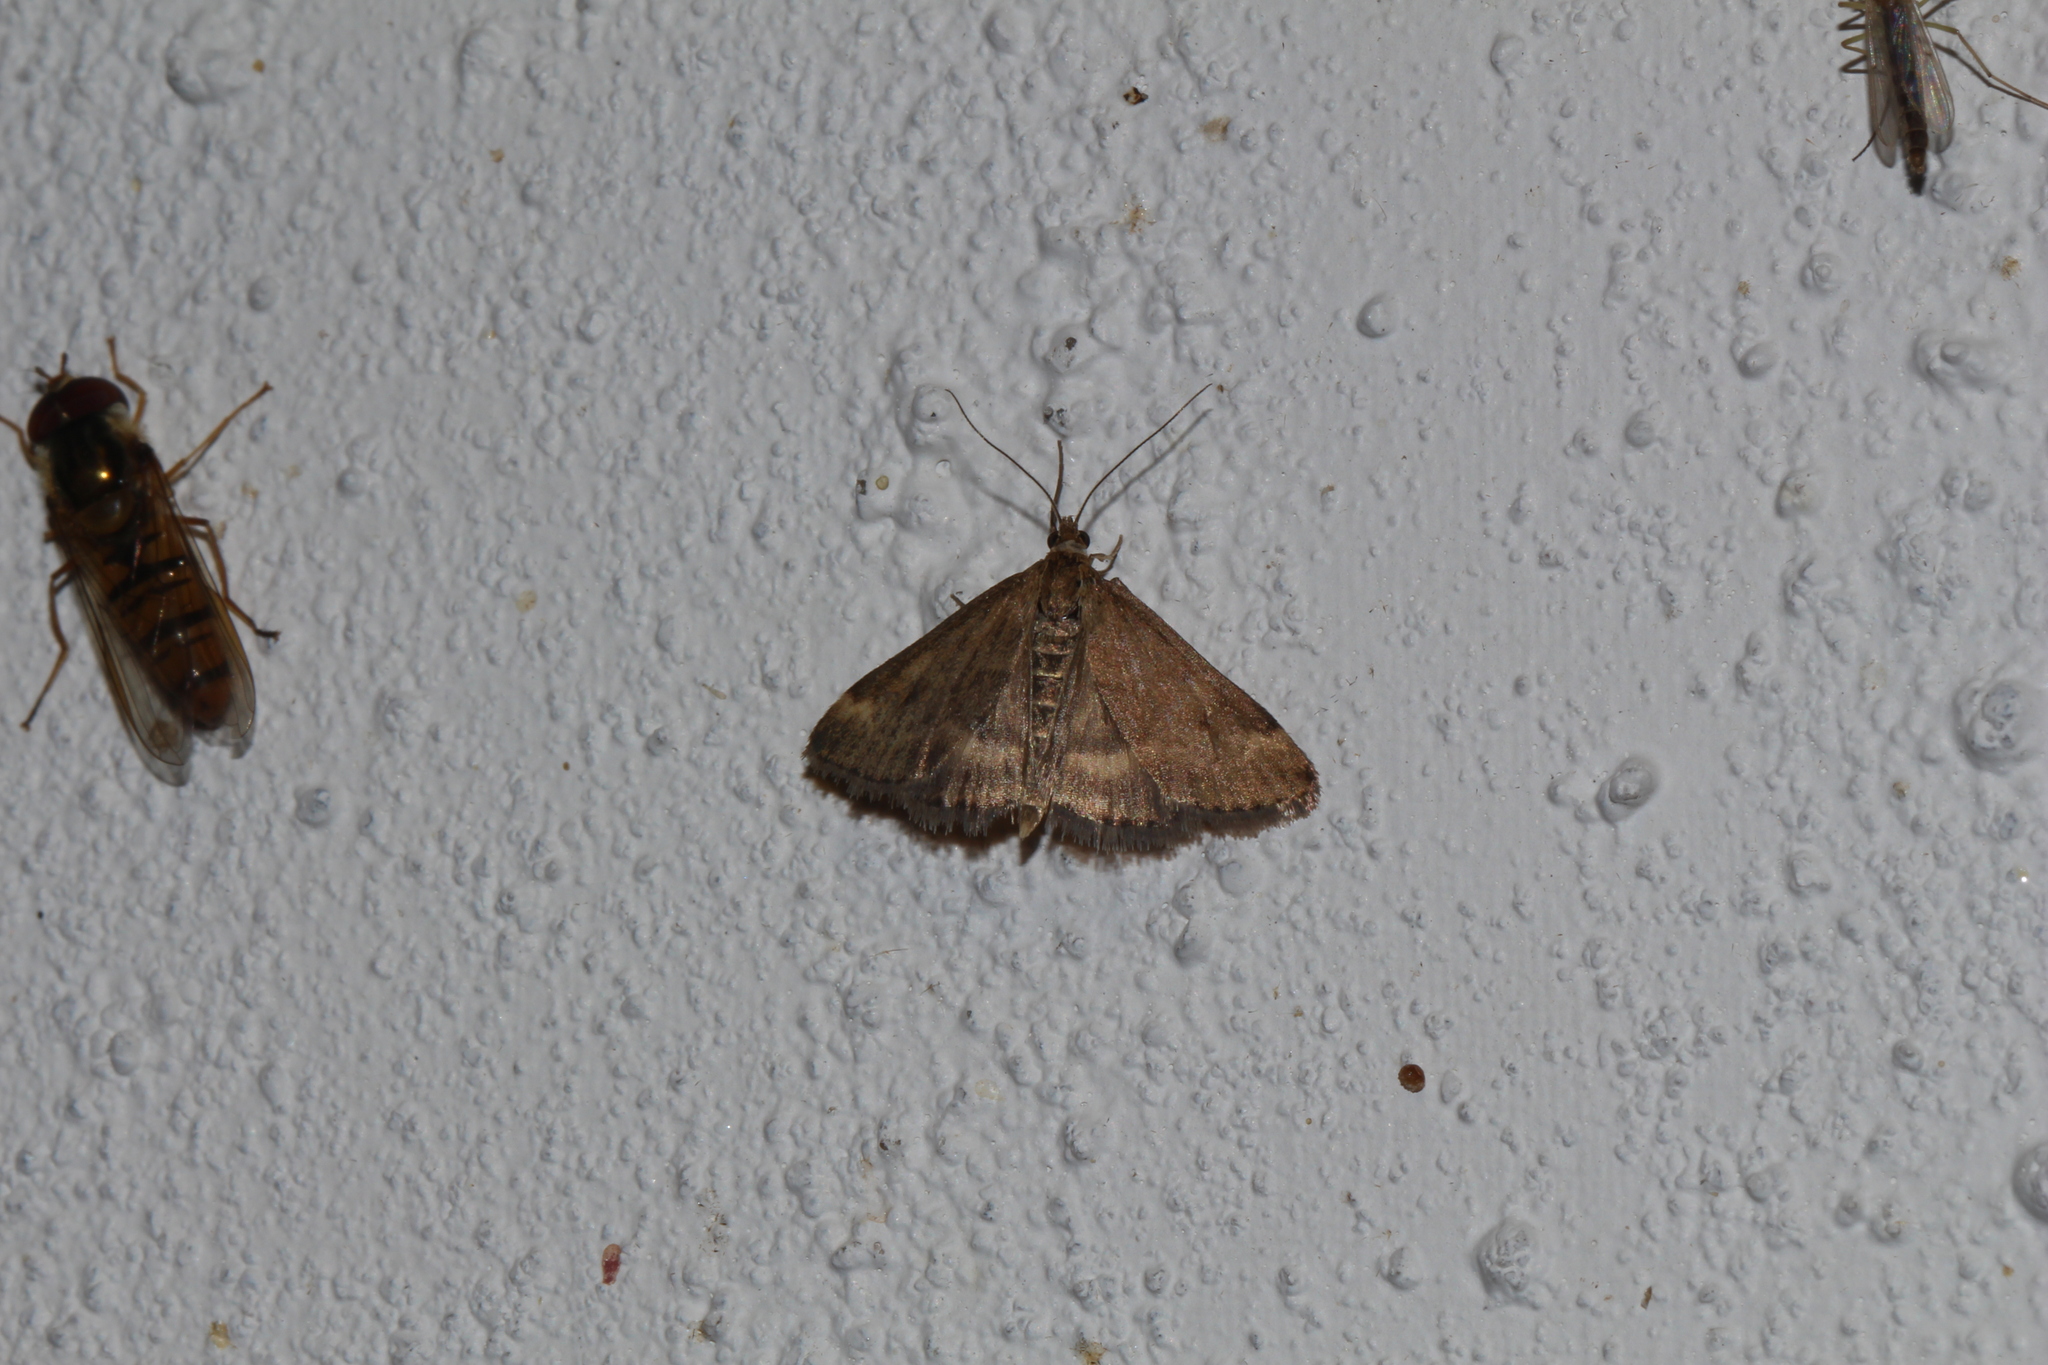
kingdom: Animalia
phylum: Arthropoda
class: Insecta
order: Lepidoptera
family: Crambidae
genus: Pyrausta
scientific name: Pyrausta despicata
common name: Straw-barred pearl
